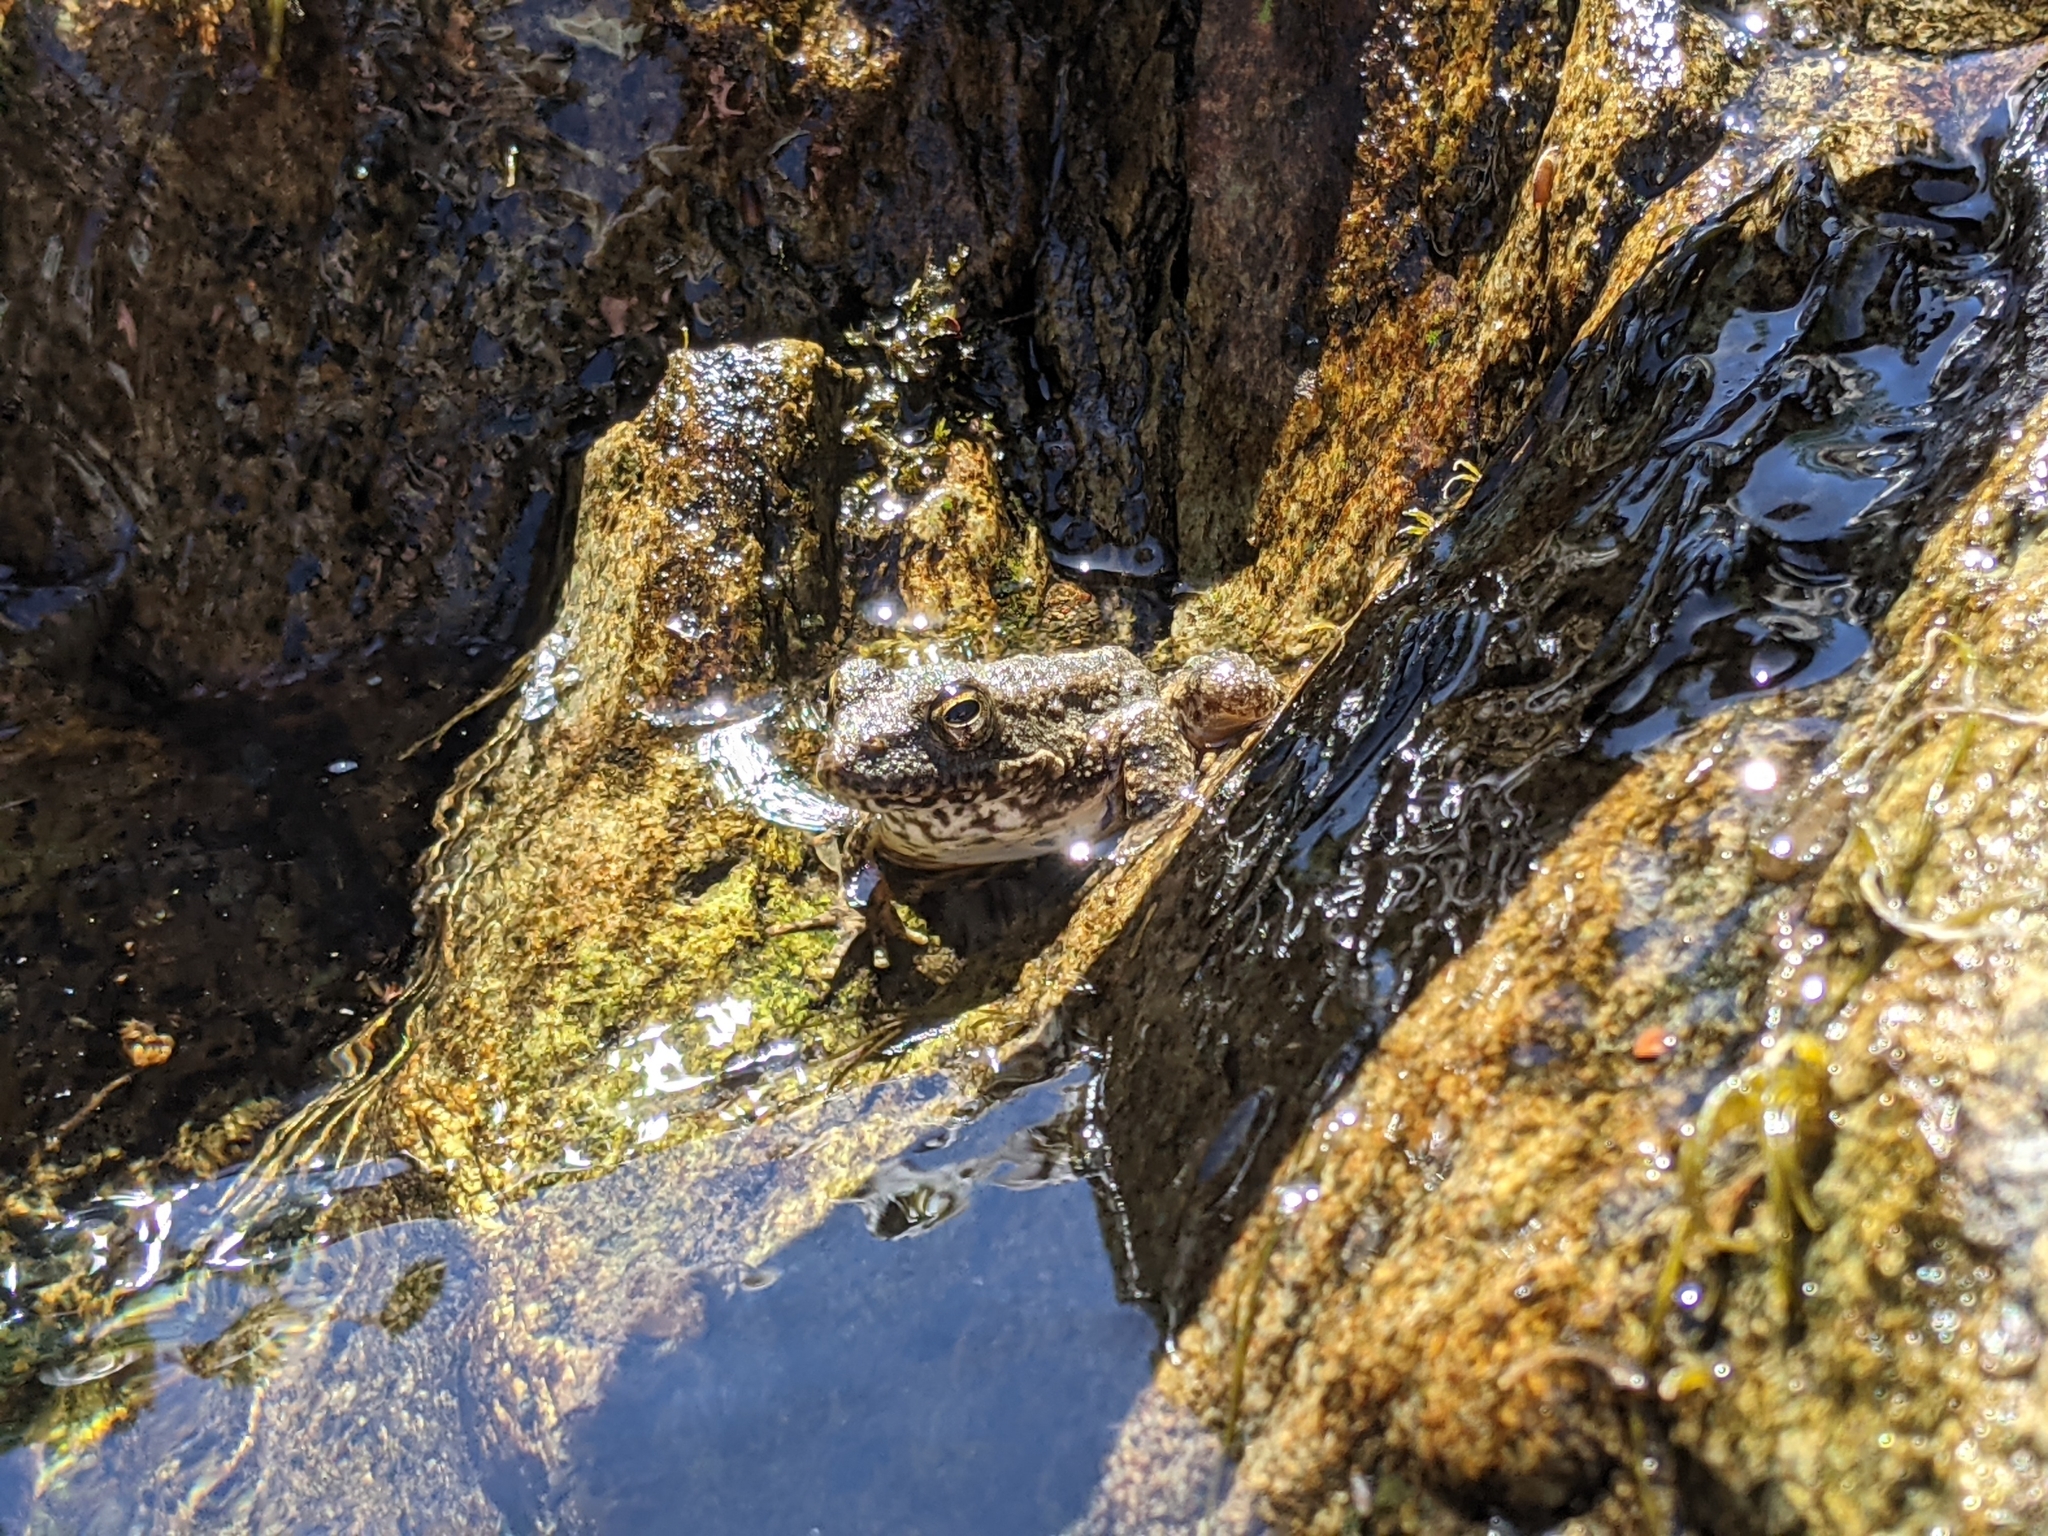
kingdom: Animalia
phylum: Chordata
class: Amphibia
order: Anura
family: Ranidae
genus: Rana
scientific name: Rana boylii
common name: Foothill yellow-legged frog
